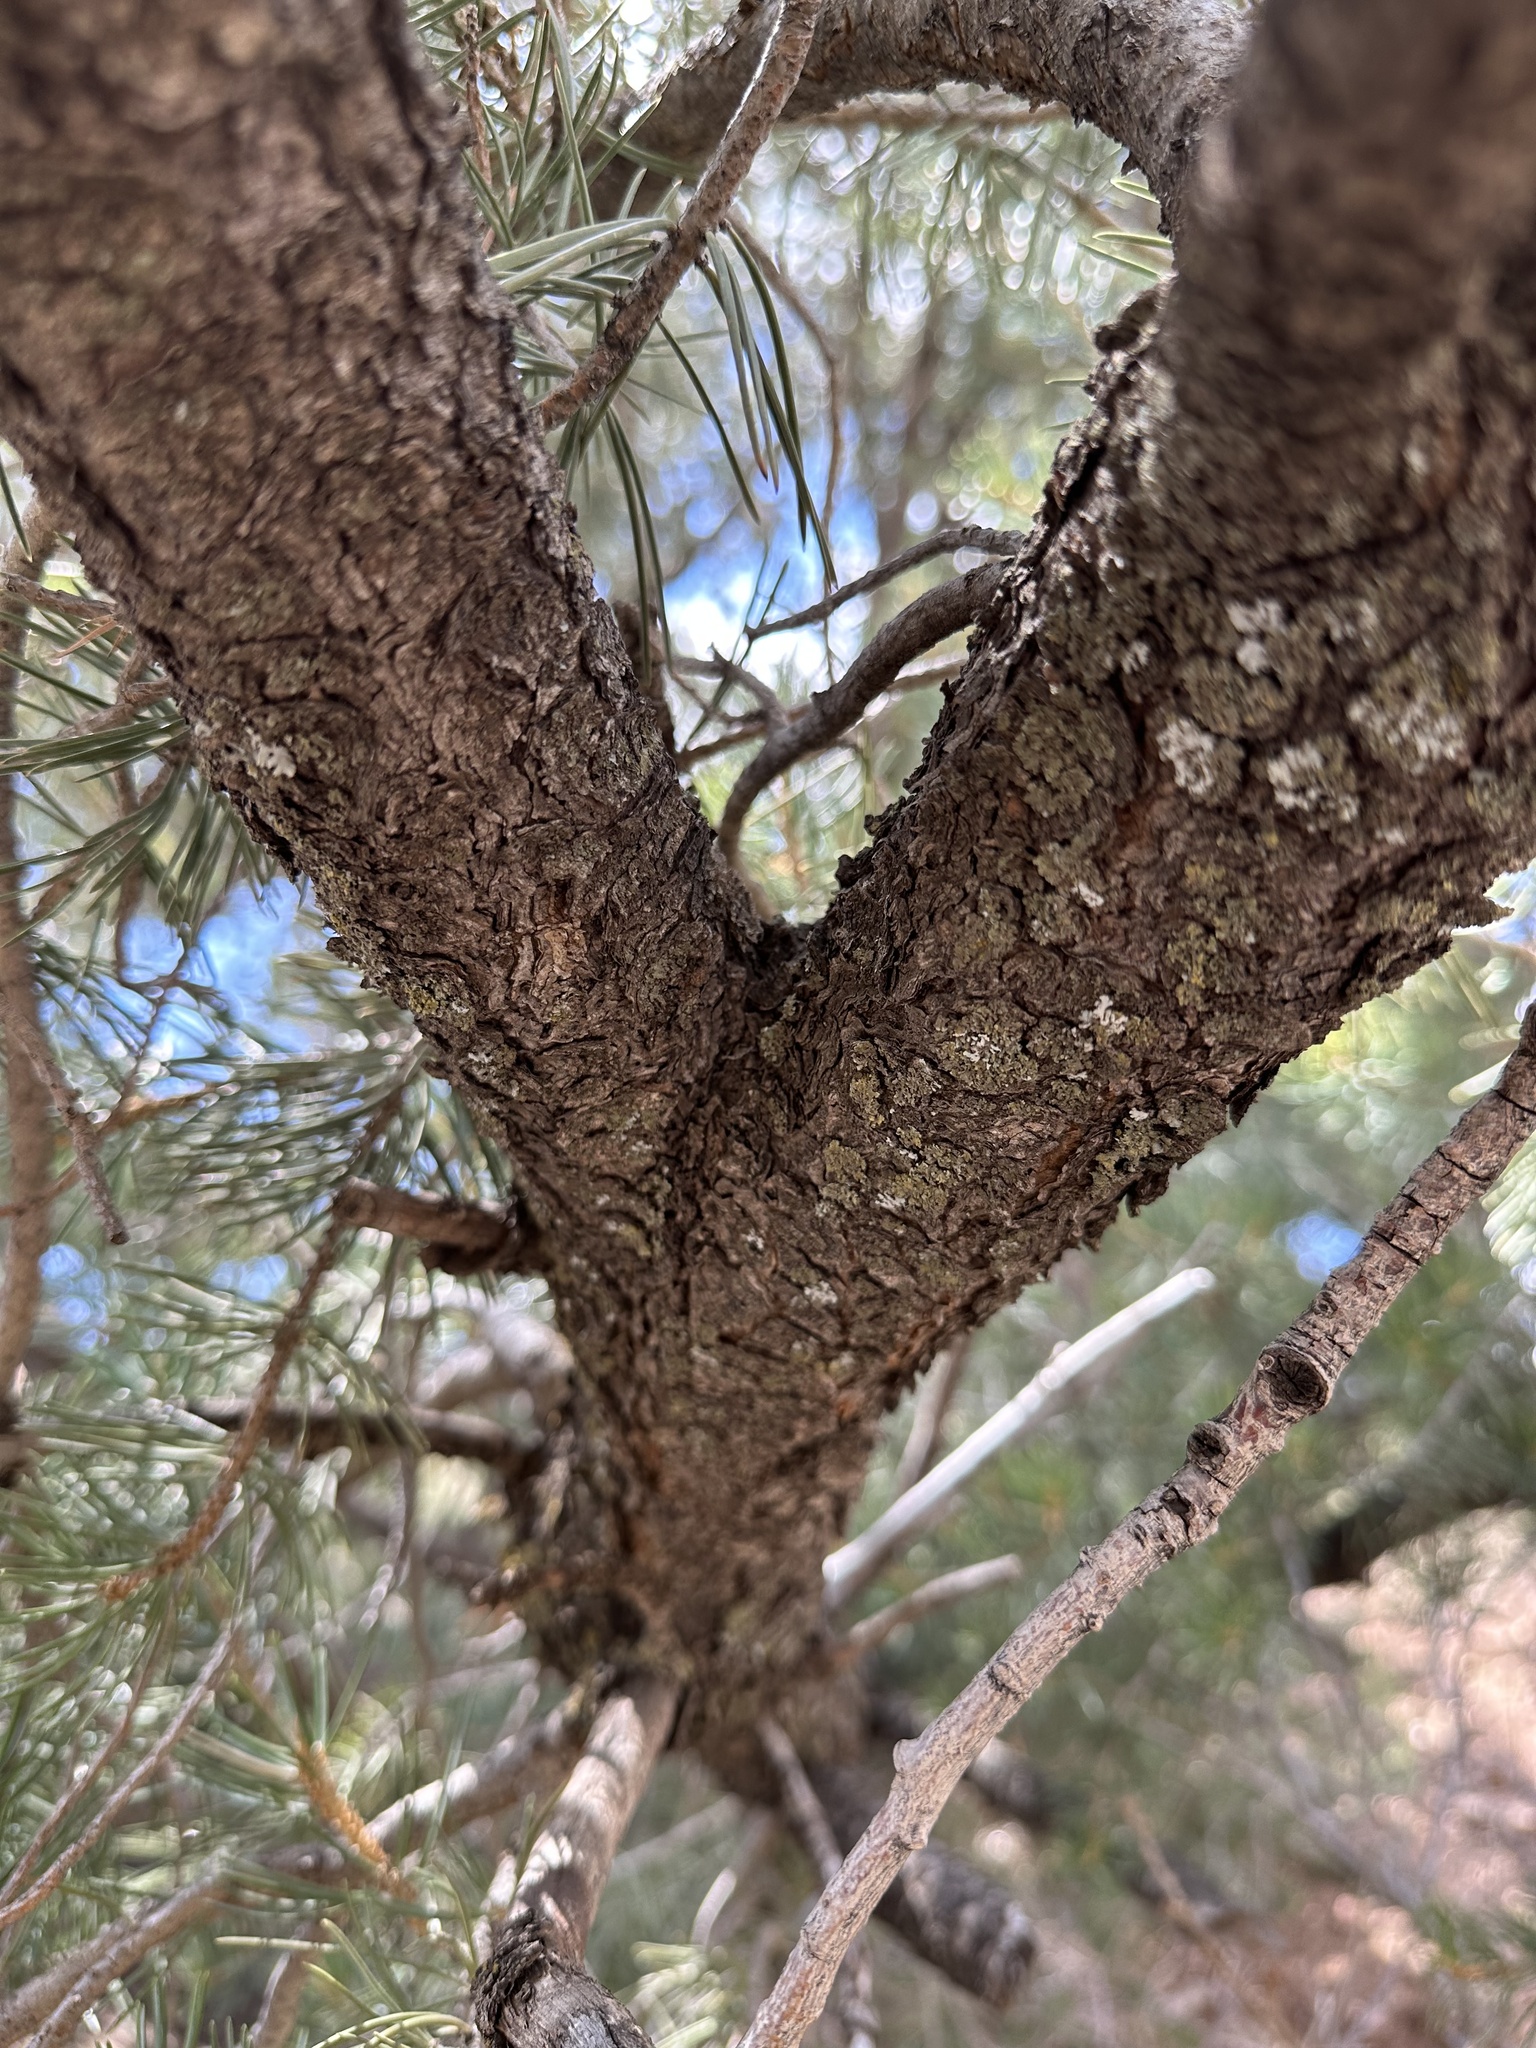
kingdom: Plantae
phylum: Tracheophyta
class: Pinopsida
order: Pinales
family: Pinaceae
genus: Pinus
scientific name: Pinus edulis
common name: Colorado pinyon
